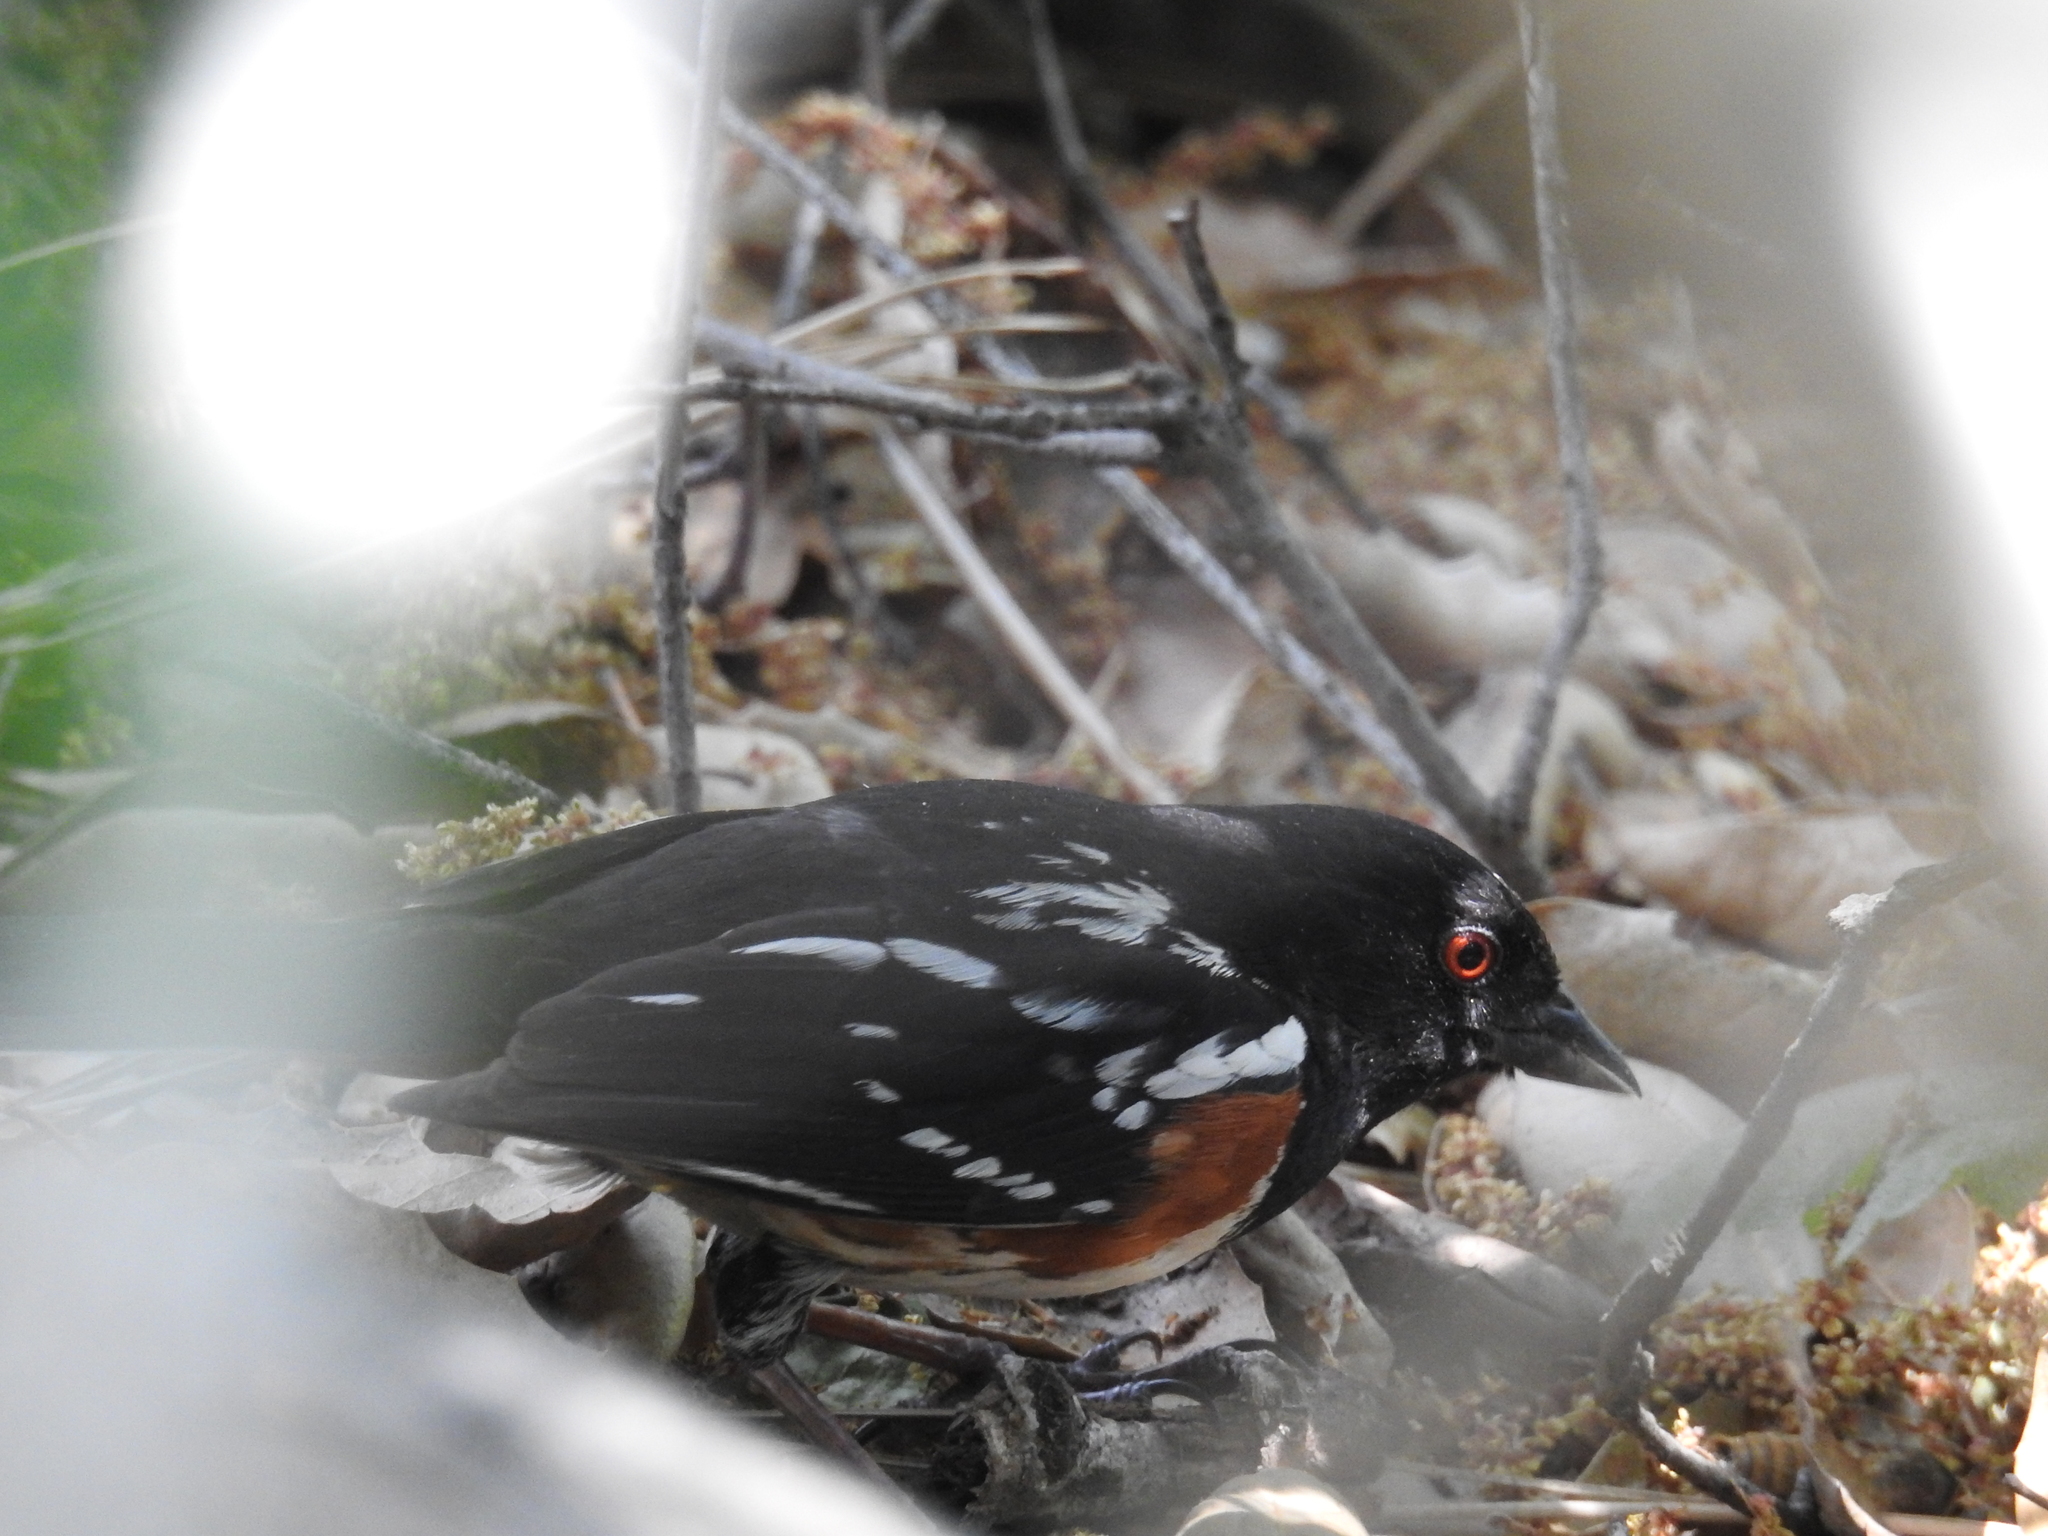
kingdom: Animalia
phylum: Chordata
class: Aves
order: Passeriformes
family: Passerellidae
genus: Pipilo
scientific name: Pipilo maculatus
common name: Spotted towhee
